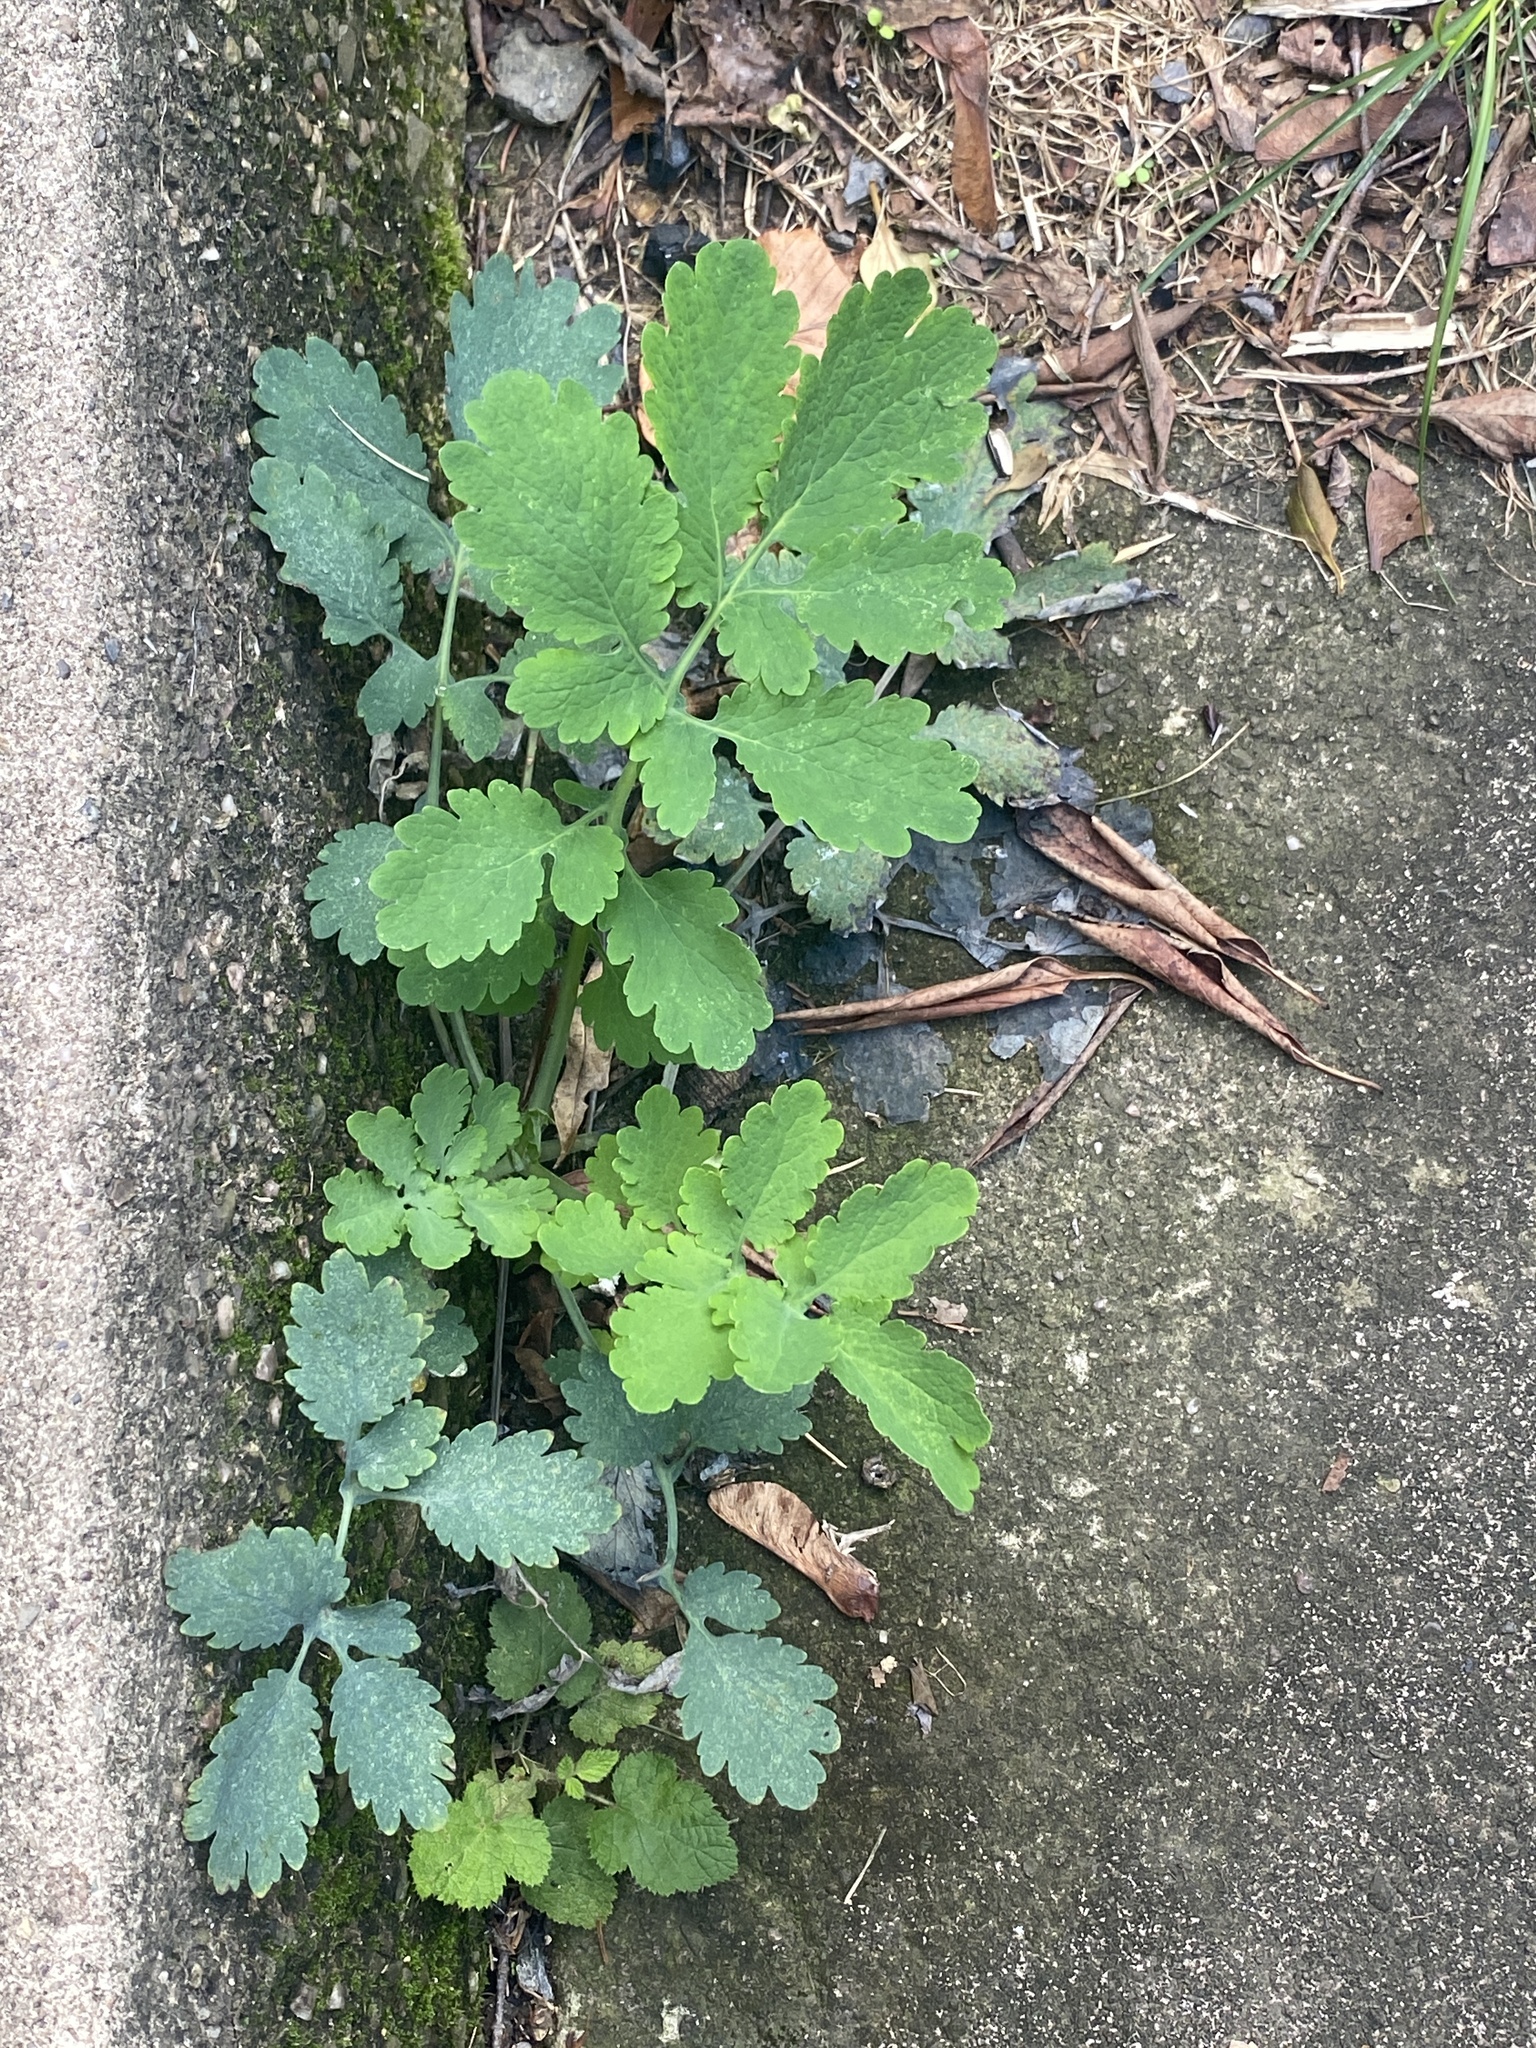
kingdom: Plantae
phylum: Tracheophyta
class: Magnoliopsida
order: Ranunculales
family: Papaveraceae
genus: Chelidonium
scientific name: Chelidonium majus
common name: Greater celandine
